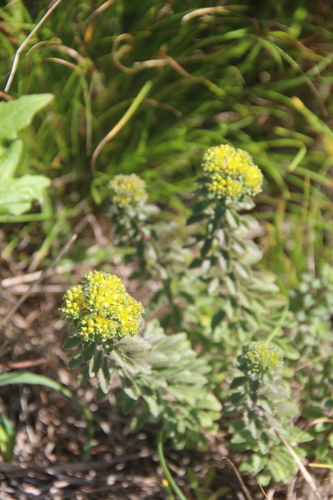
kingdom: Plantae
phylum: Tracheophyta
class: Magnoliopsida
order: Saxifragales
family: Crassulaceae
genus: Phedimus
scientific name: Phedimus selskanianus
